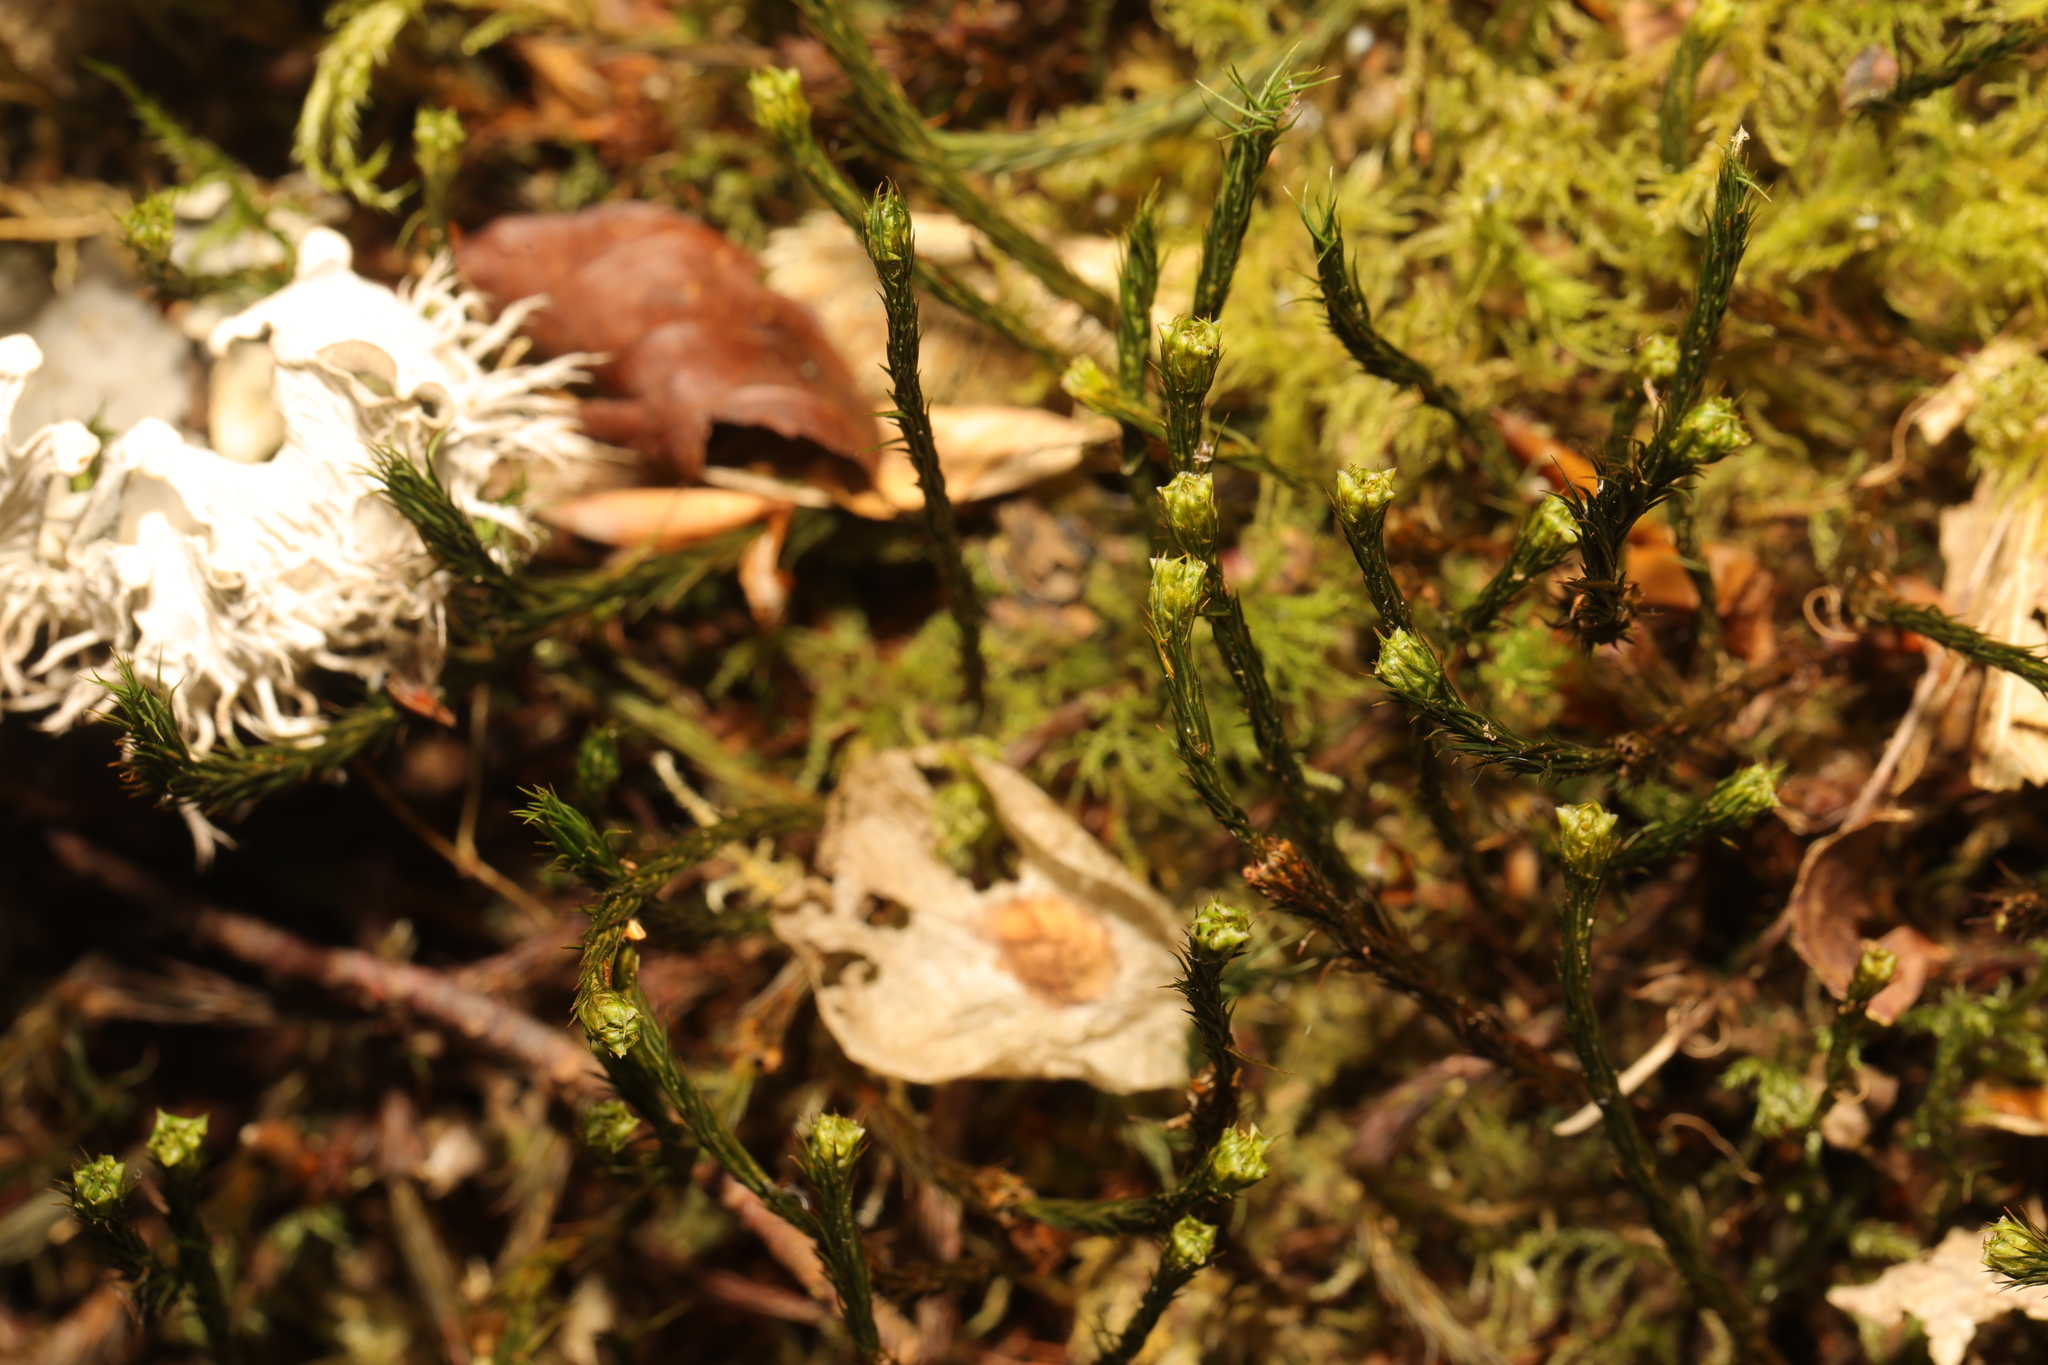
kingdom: Plantae
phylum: Bryophyta
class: Polytrichopsida
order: Polytrichales
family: Polytrichaceae
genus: Polytrichum
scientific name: Polytrichum formosum
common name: Bank haircap moss
